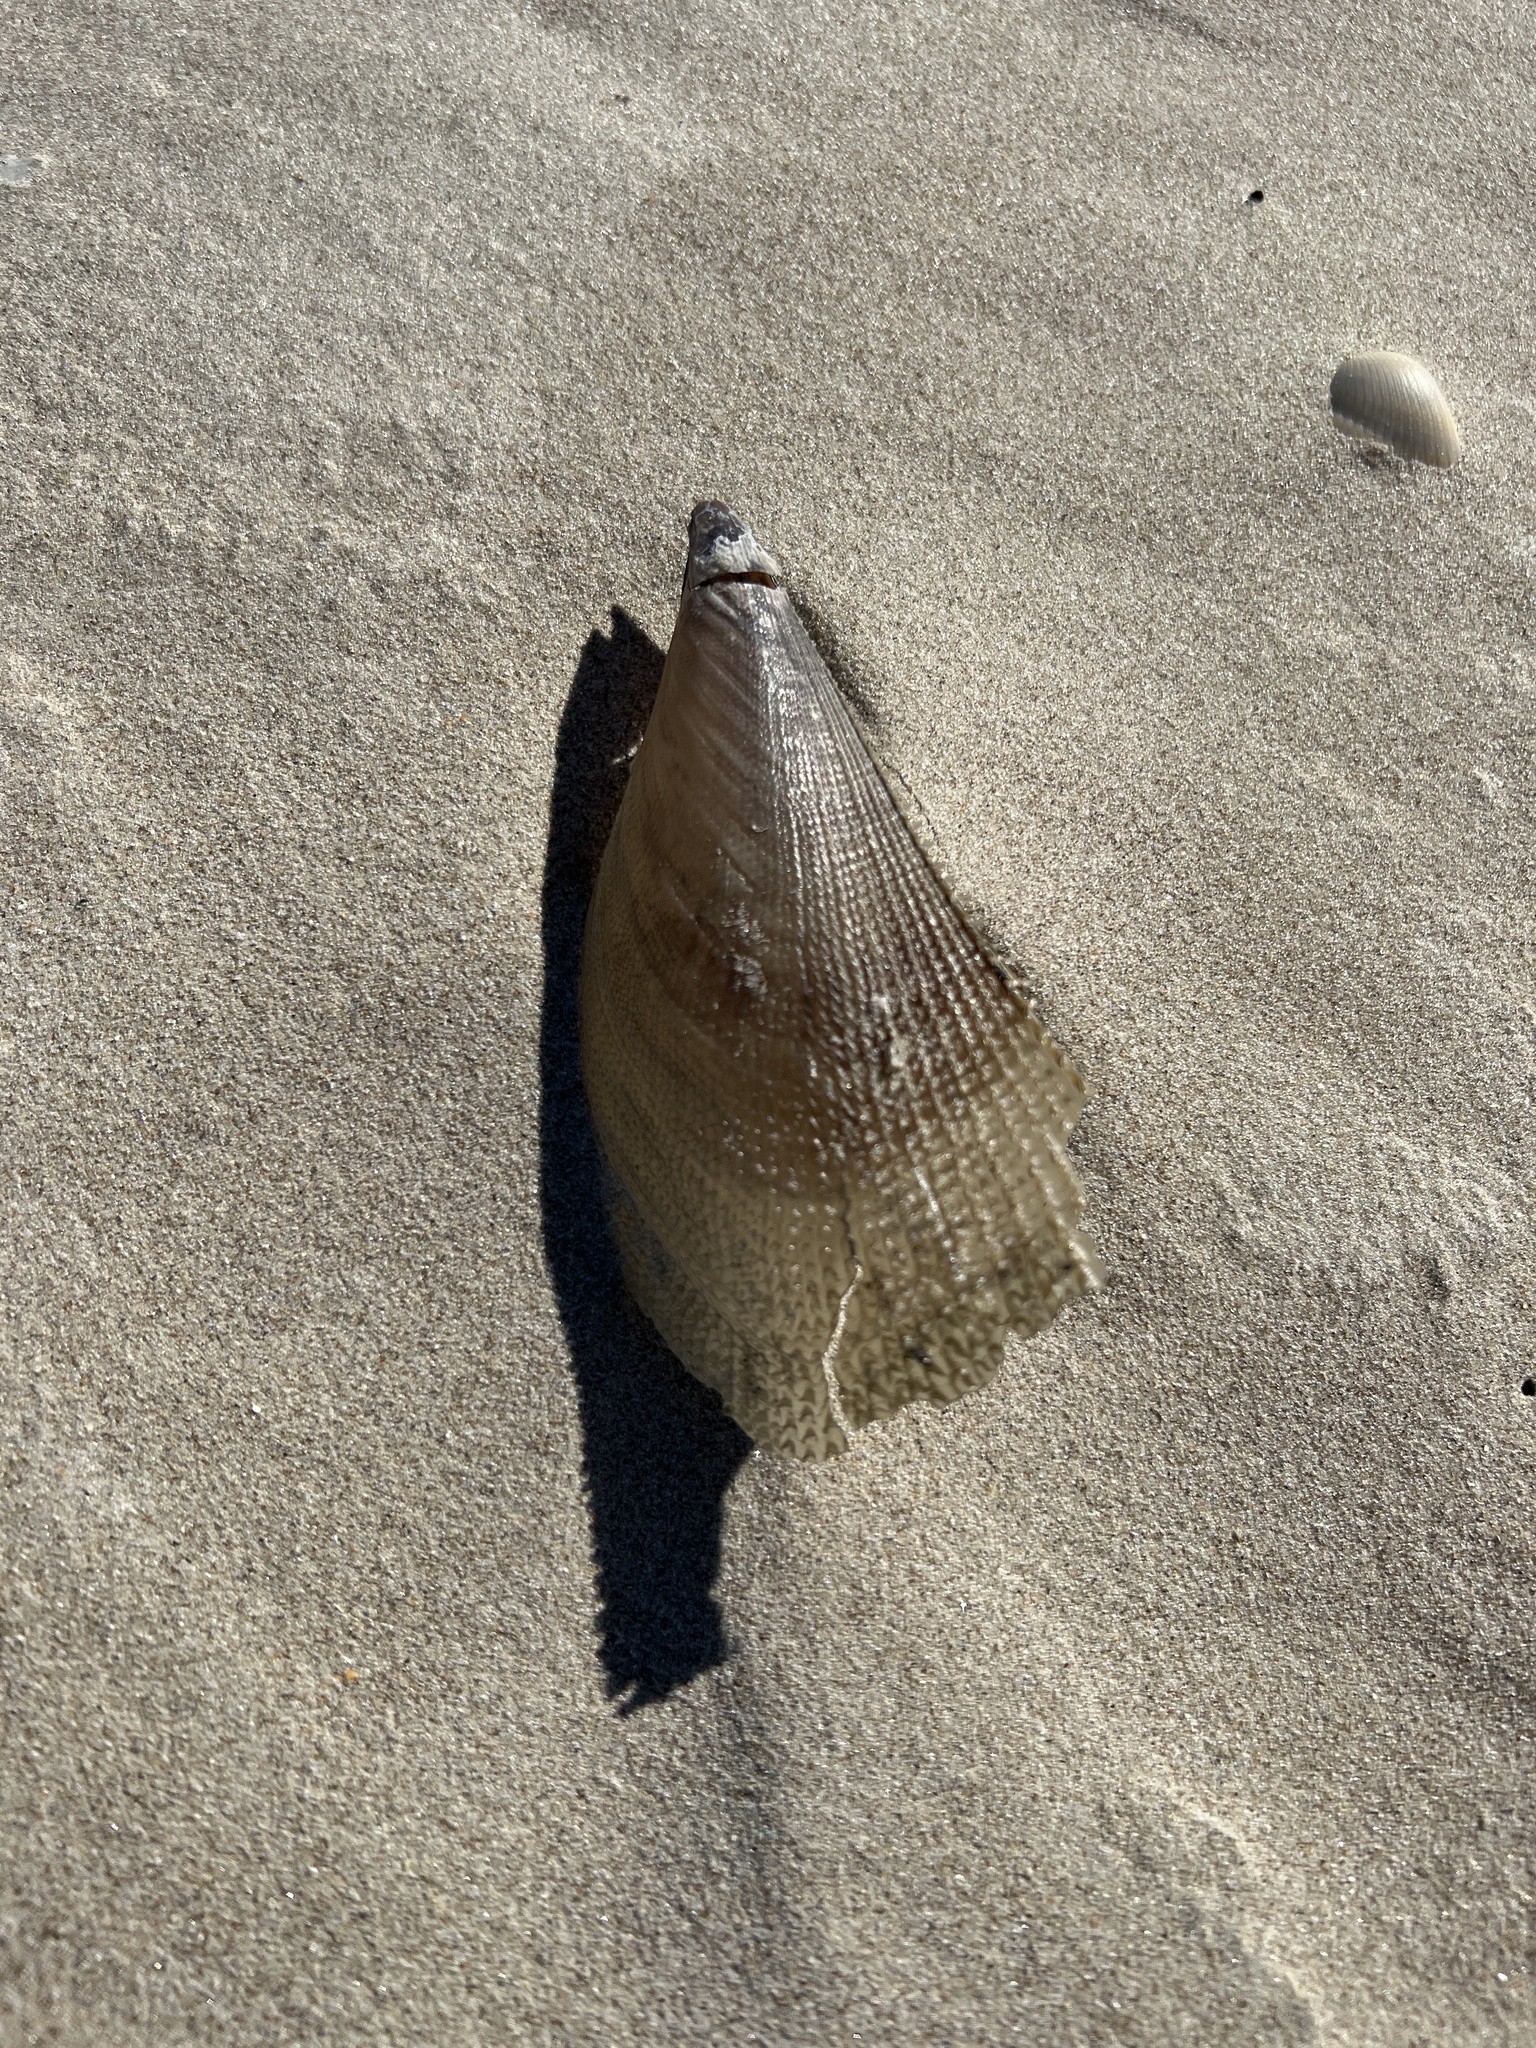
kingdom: Animalia
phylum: Mollusca
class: Bivalvia
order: Ostreida
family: Pinnidae
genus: Atrina
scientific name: Atrina serrata
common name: Saw-toothed penshell
